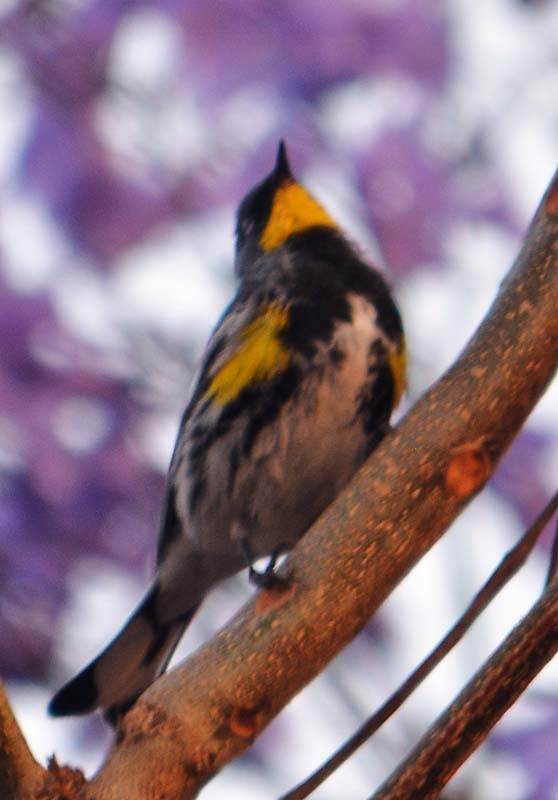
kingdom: Animalia
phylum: Chordata
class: Aves
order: Passeriformes
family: Parulidae
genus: Setophaga
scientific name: Setophaga auduboni
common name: Audubon's warbler
